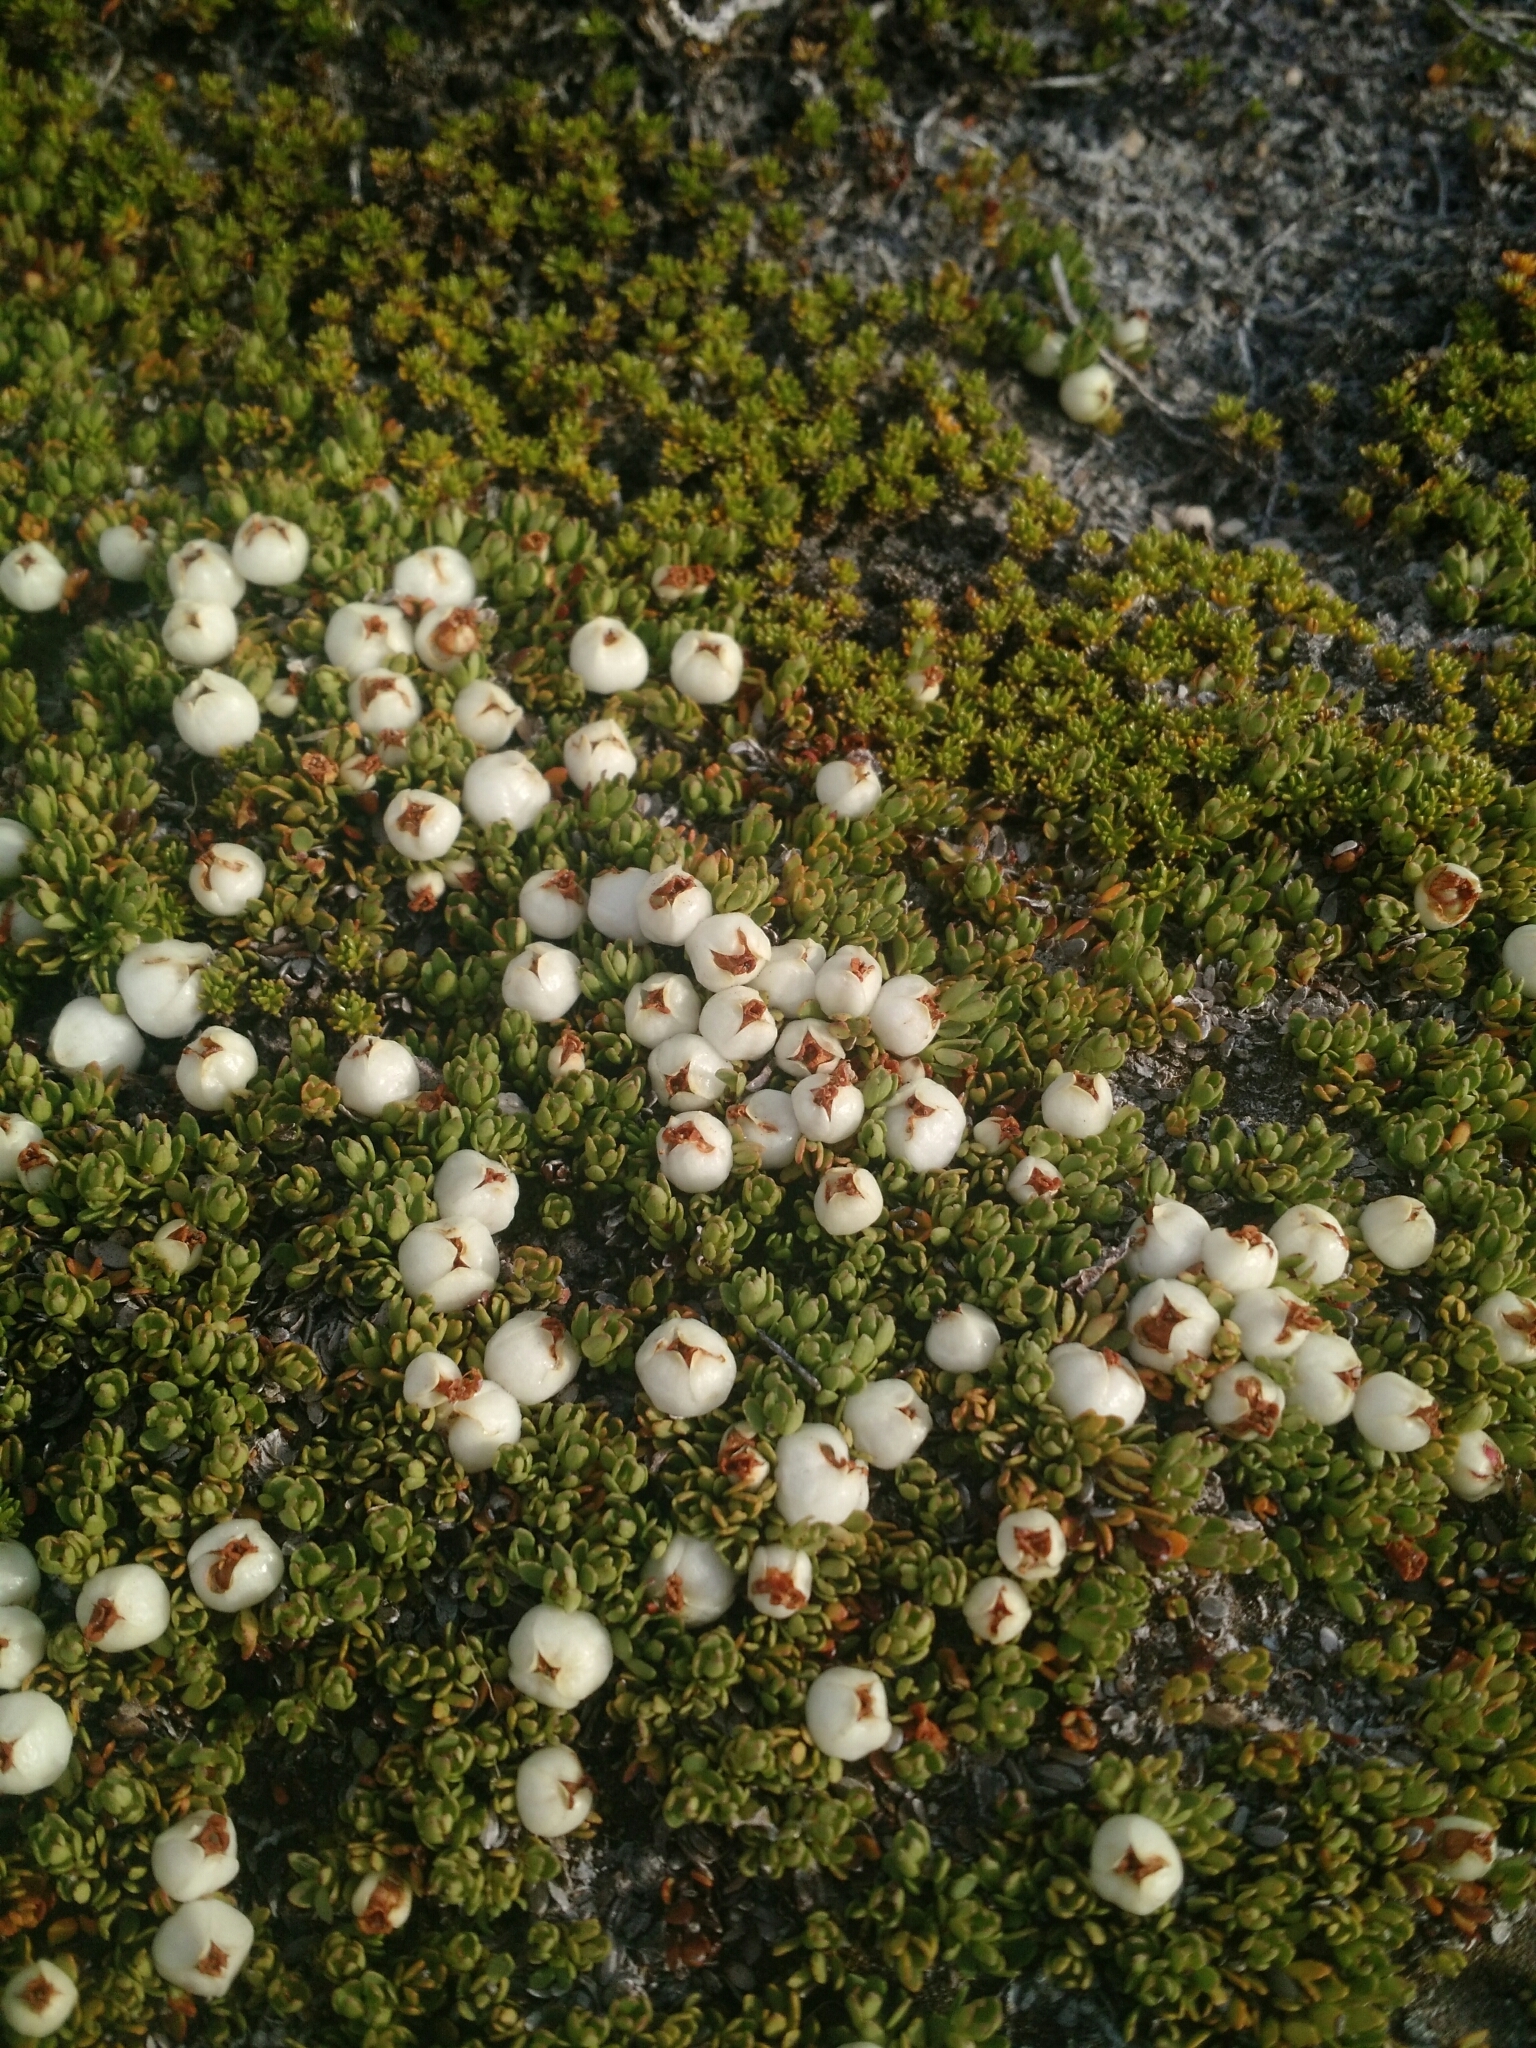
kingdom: Plantae
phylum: Tracheophyta
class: Magnoliopsida
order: Ericales
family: Ericaceae
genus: Gaultheria
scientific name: Gaultheria caespitosa
